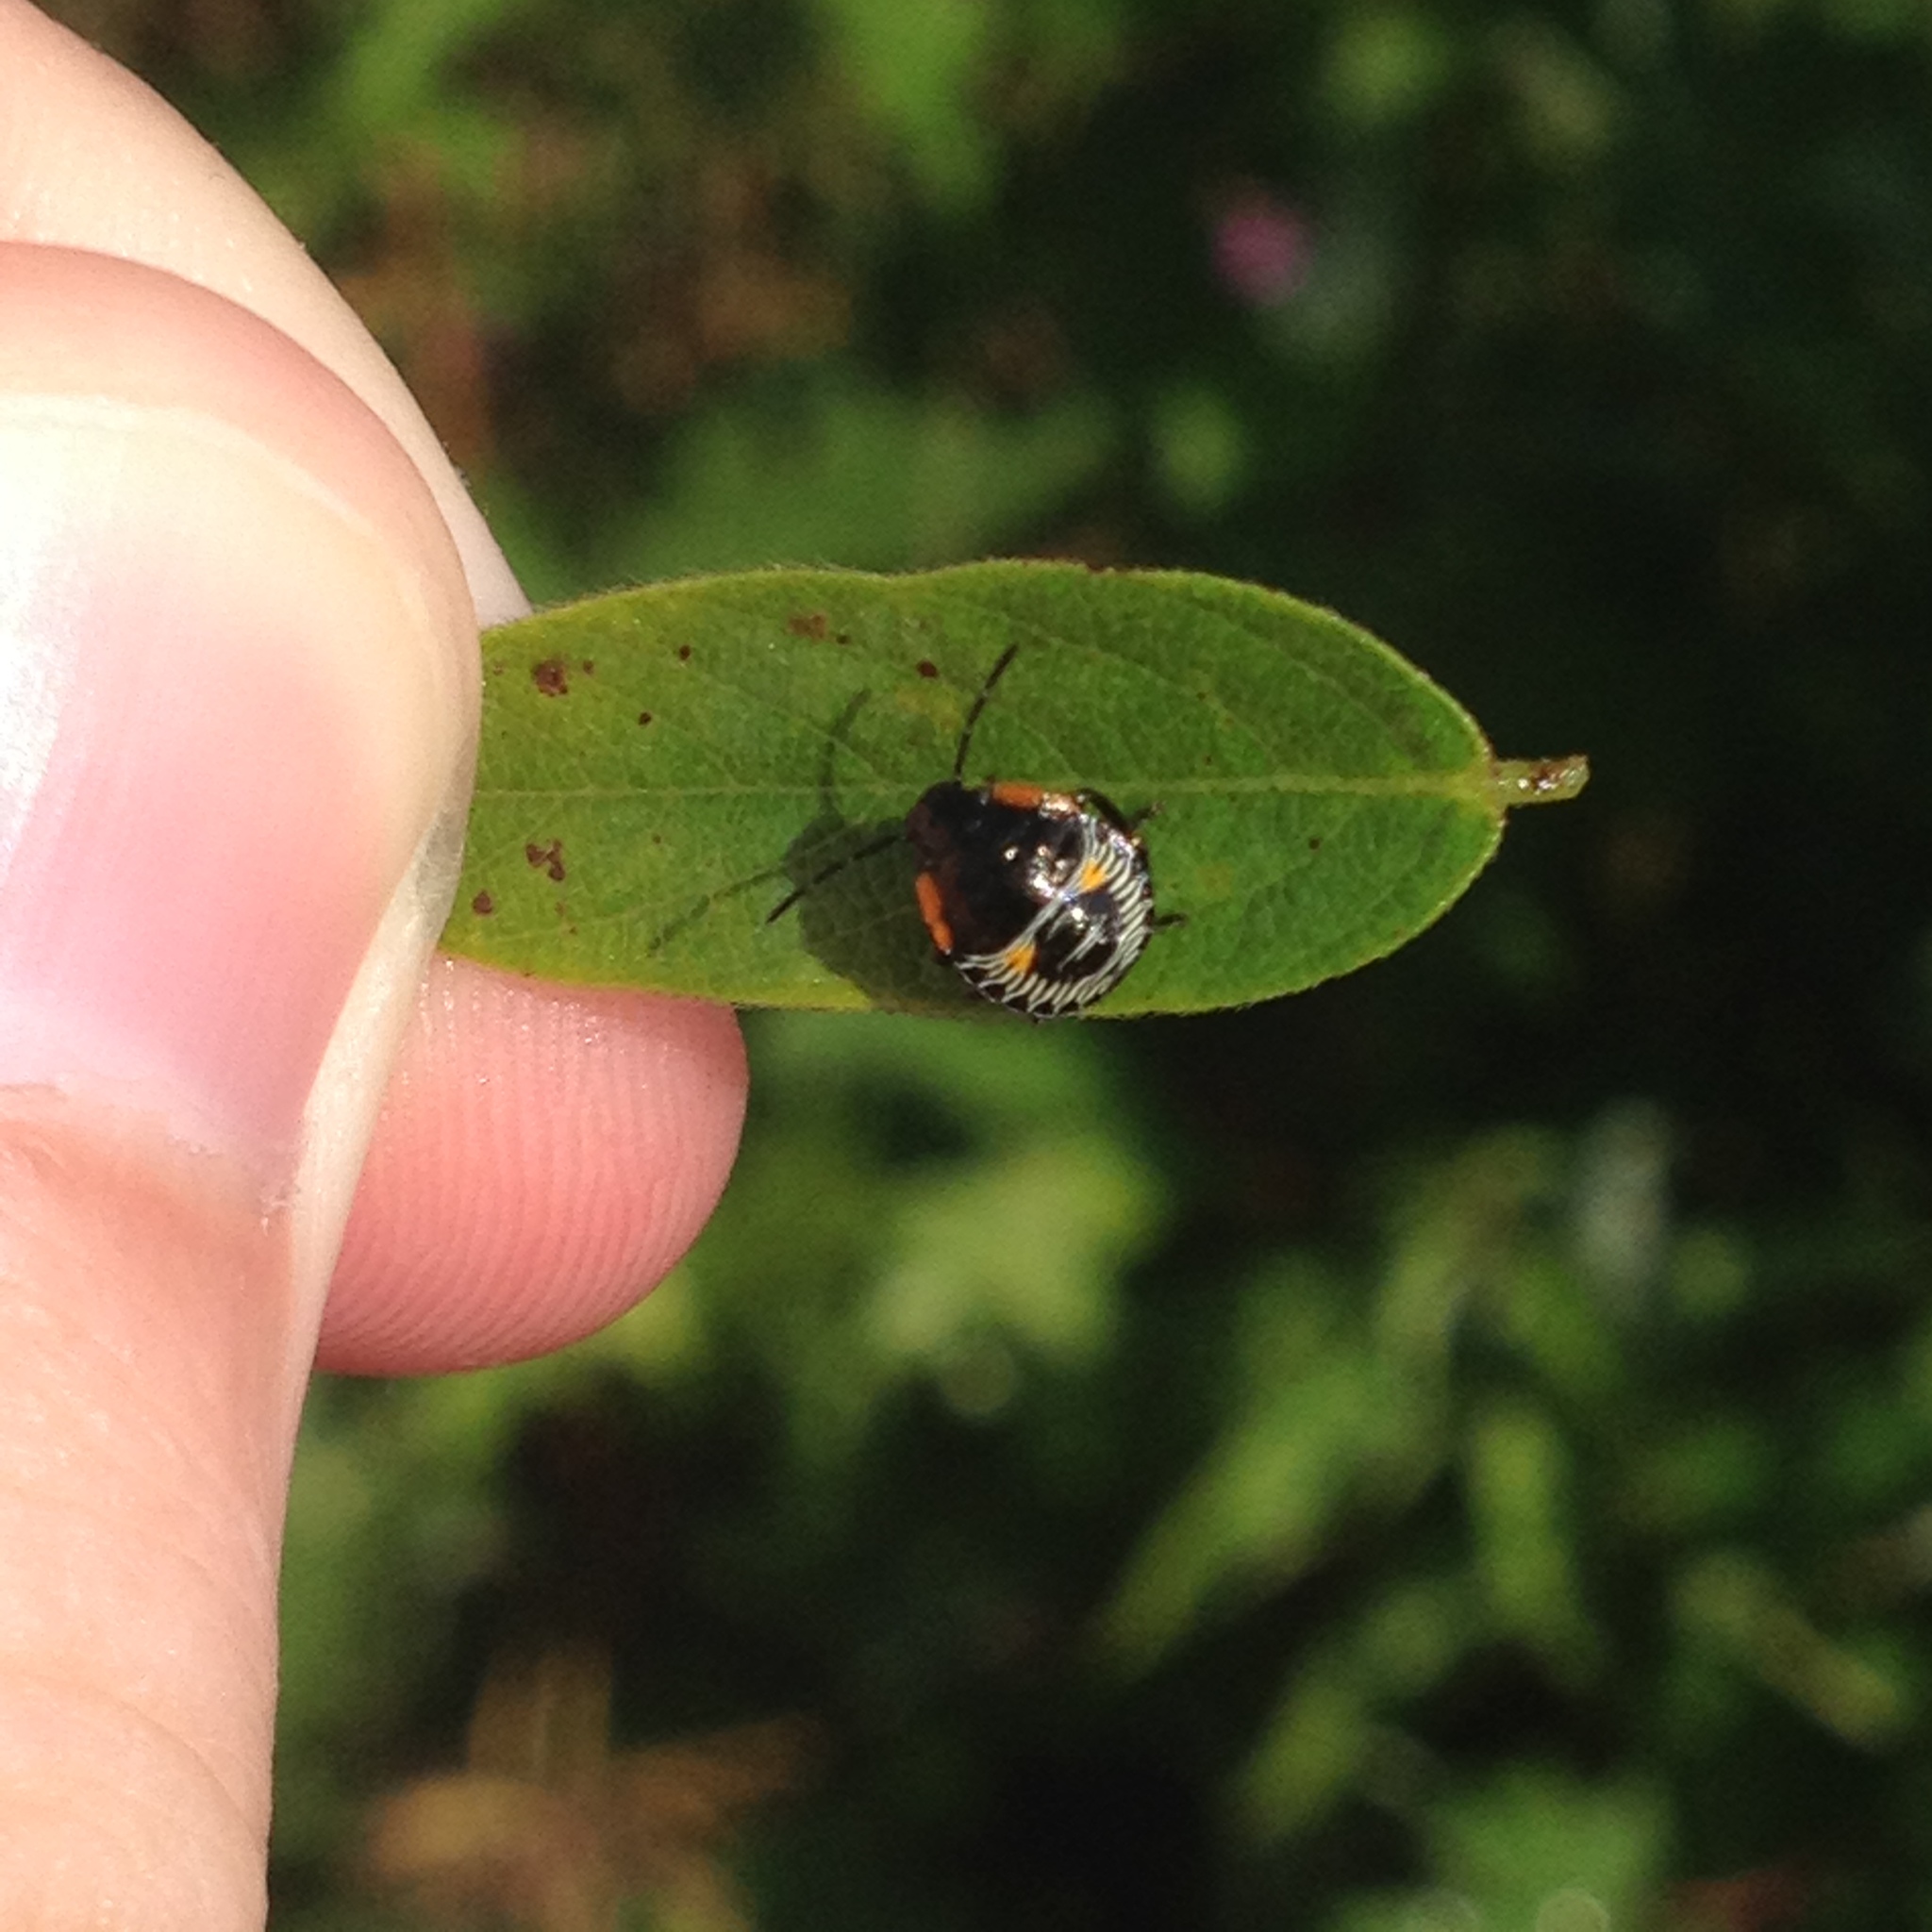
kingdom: Animalia
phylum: Arthropoda
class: Insecta
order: Hemiptera
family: Pentatomidae
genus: Chinavia
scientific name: Chinavia hilaris
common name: Green stink bug
